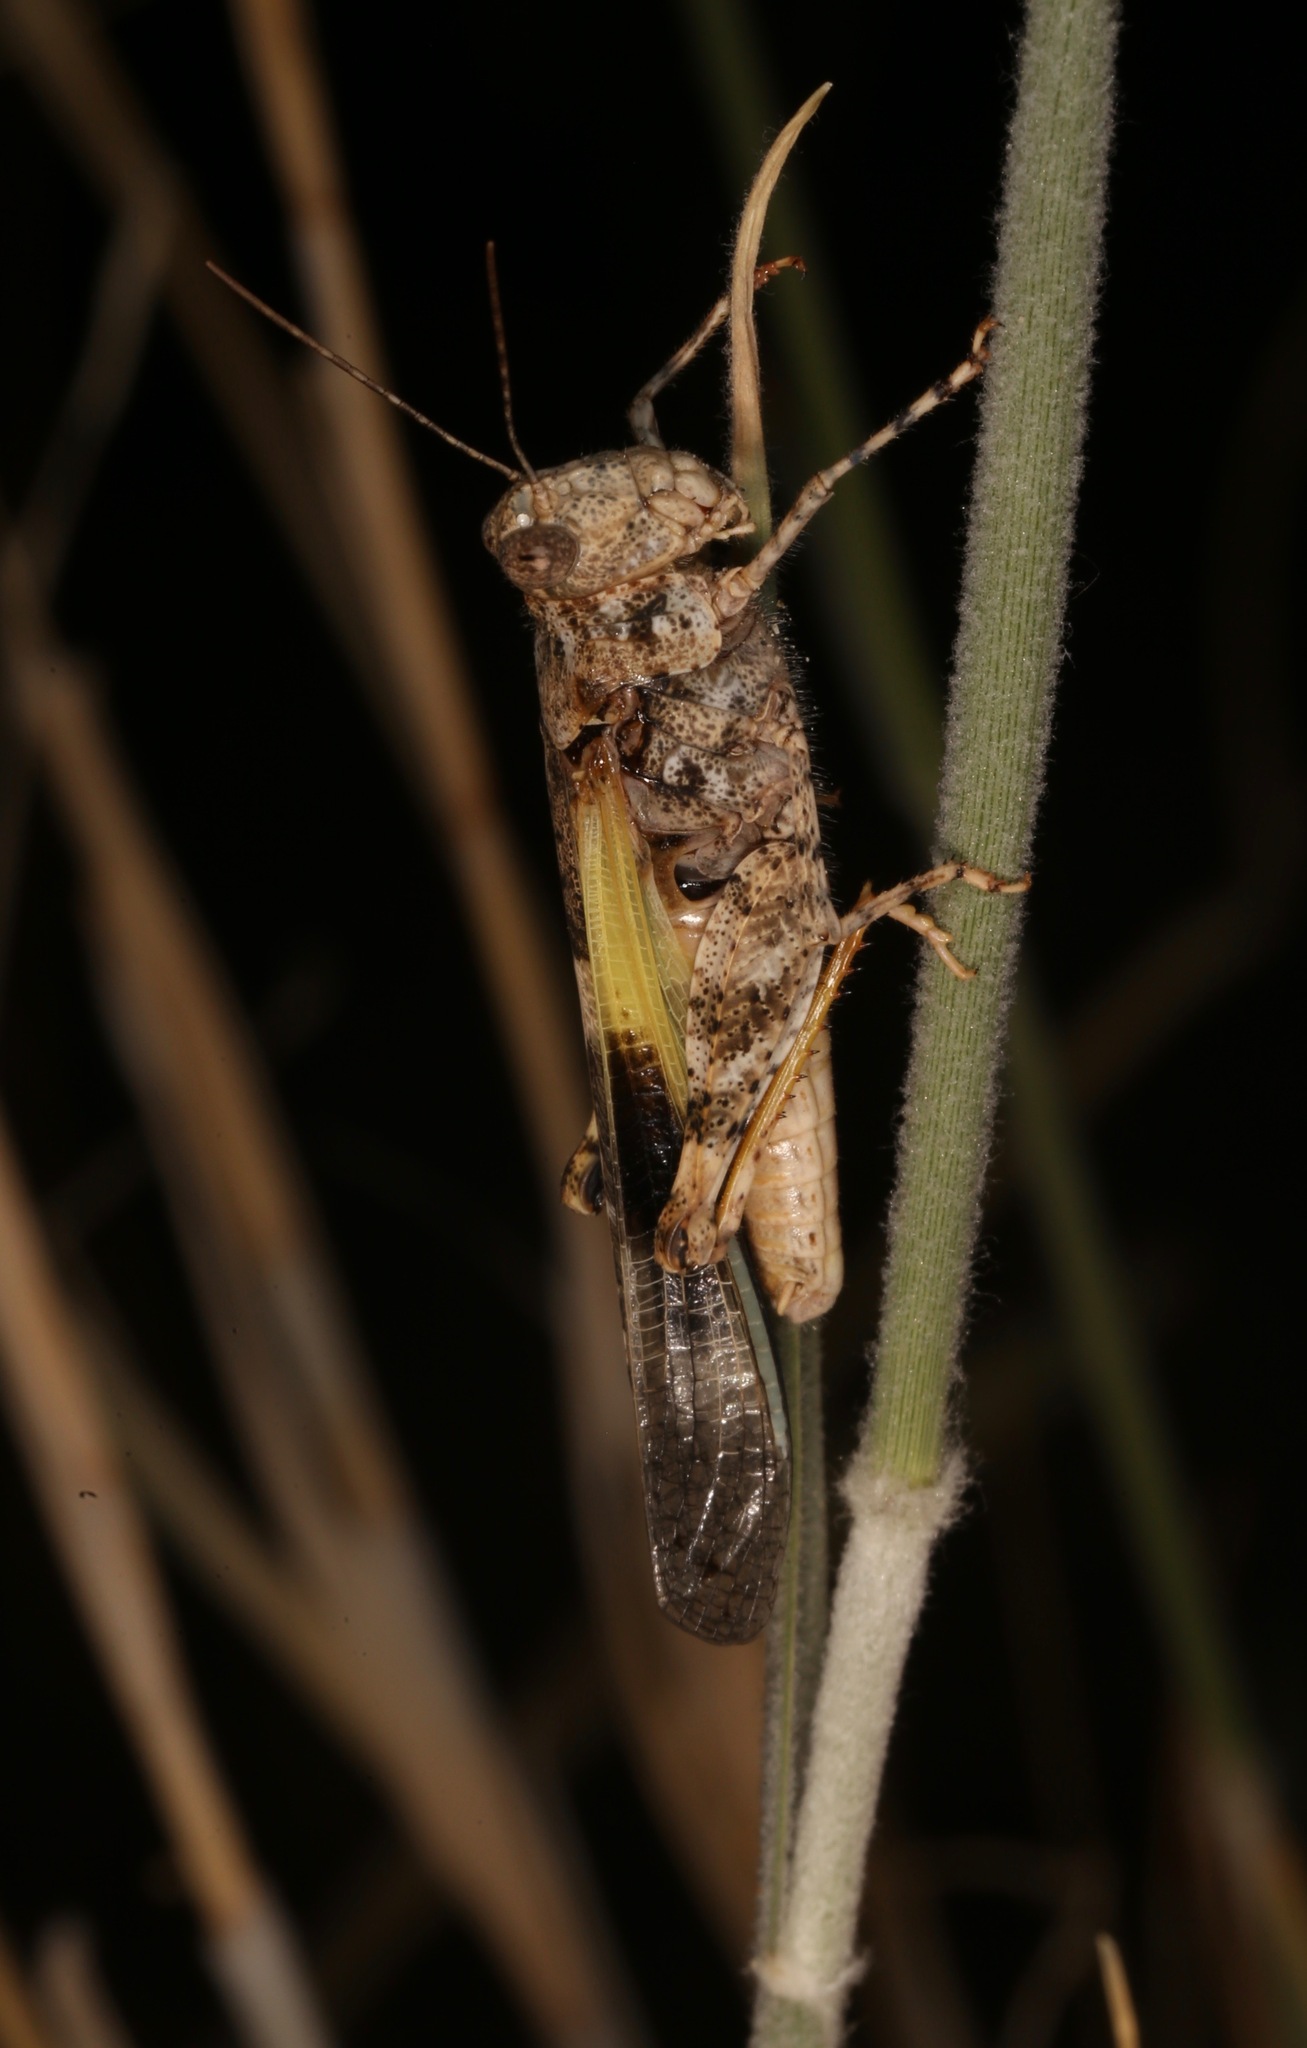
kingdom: Animalia
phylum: Arthropoda
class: Insecta
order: Orthoptera
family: Acrididae
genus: Trimerotropis
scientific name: Trimerotropis pallidipennis
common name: Pallid-winged grasshopper
